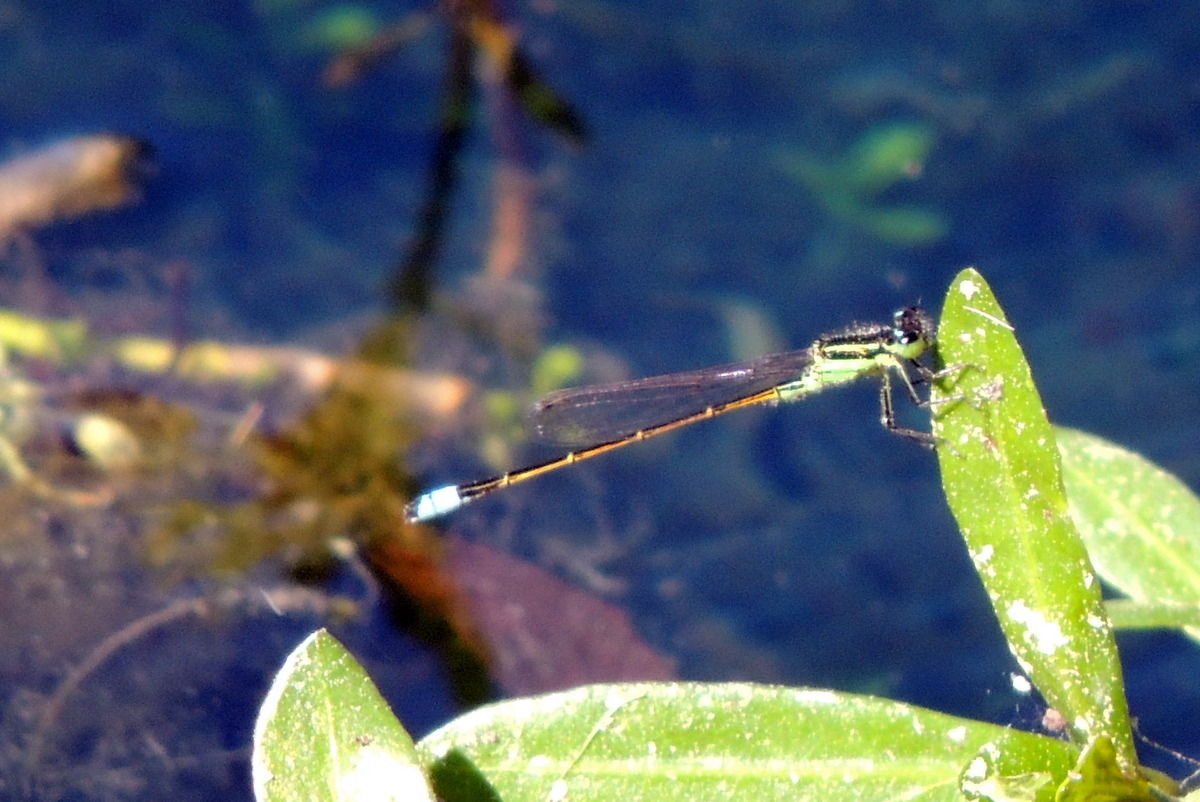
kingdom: Animalia
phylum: Arthropoda
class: Insecta
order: Odonata
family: Coenagrionidae
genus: Ischnura
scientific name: Ischnura ramburii
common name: Rambur's forktail
